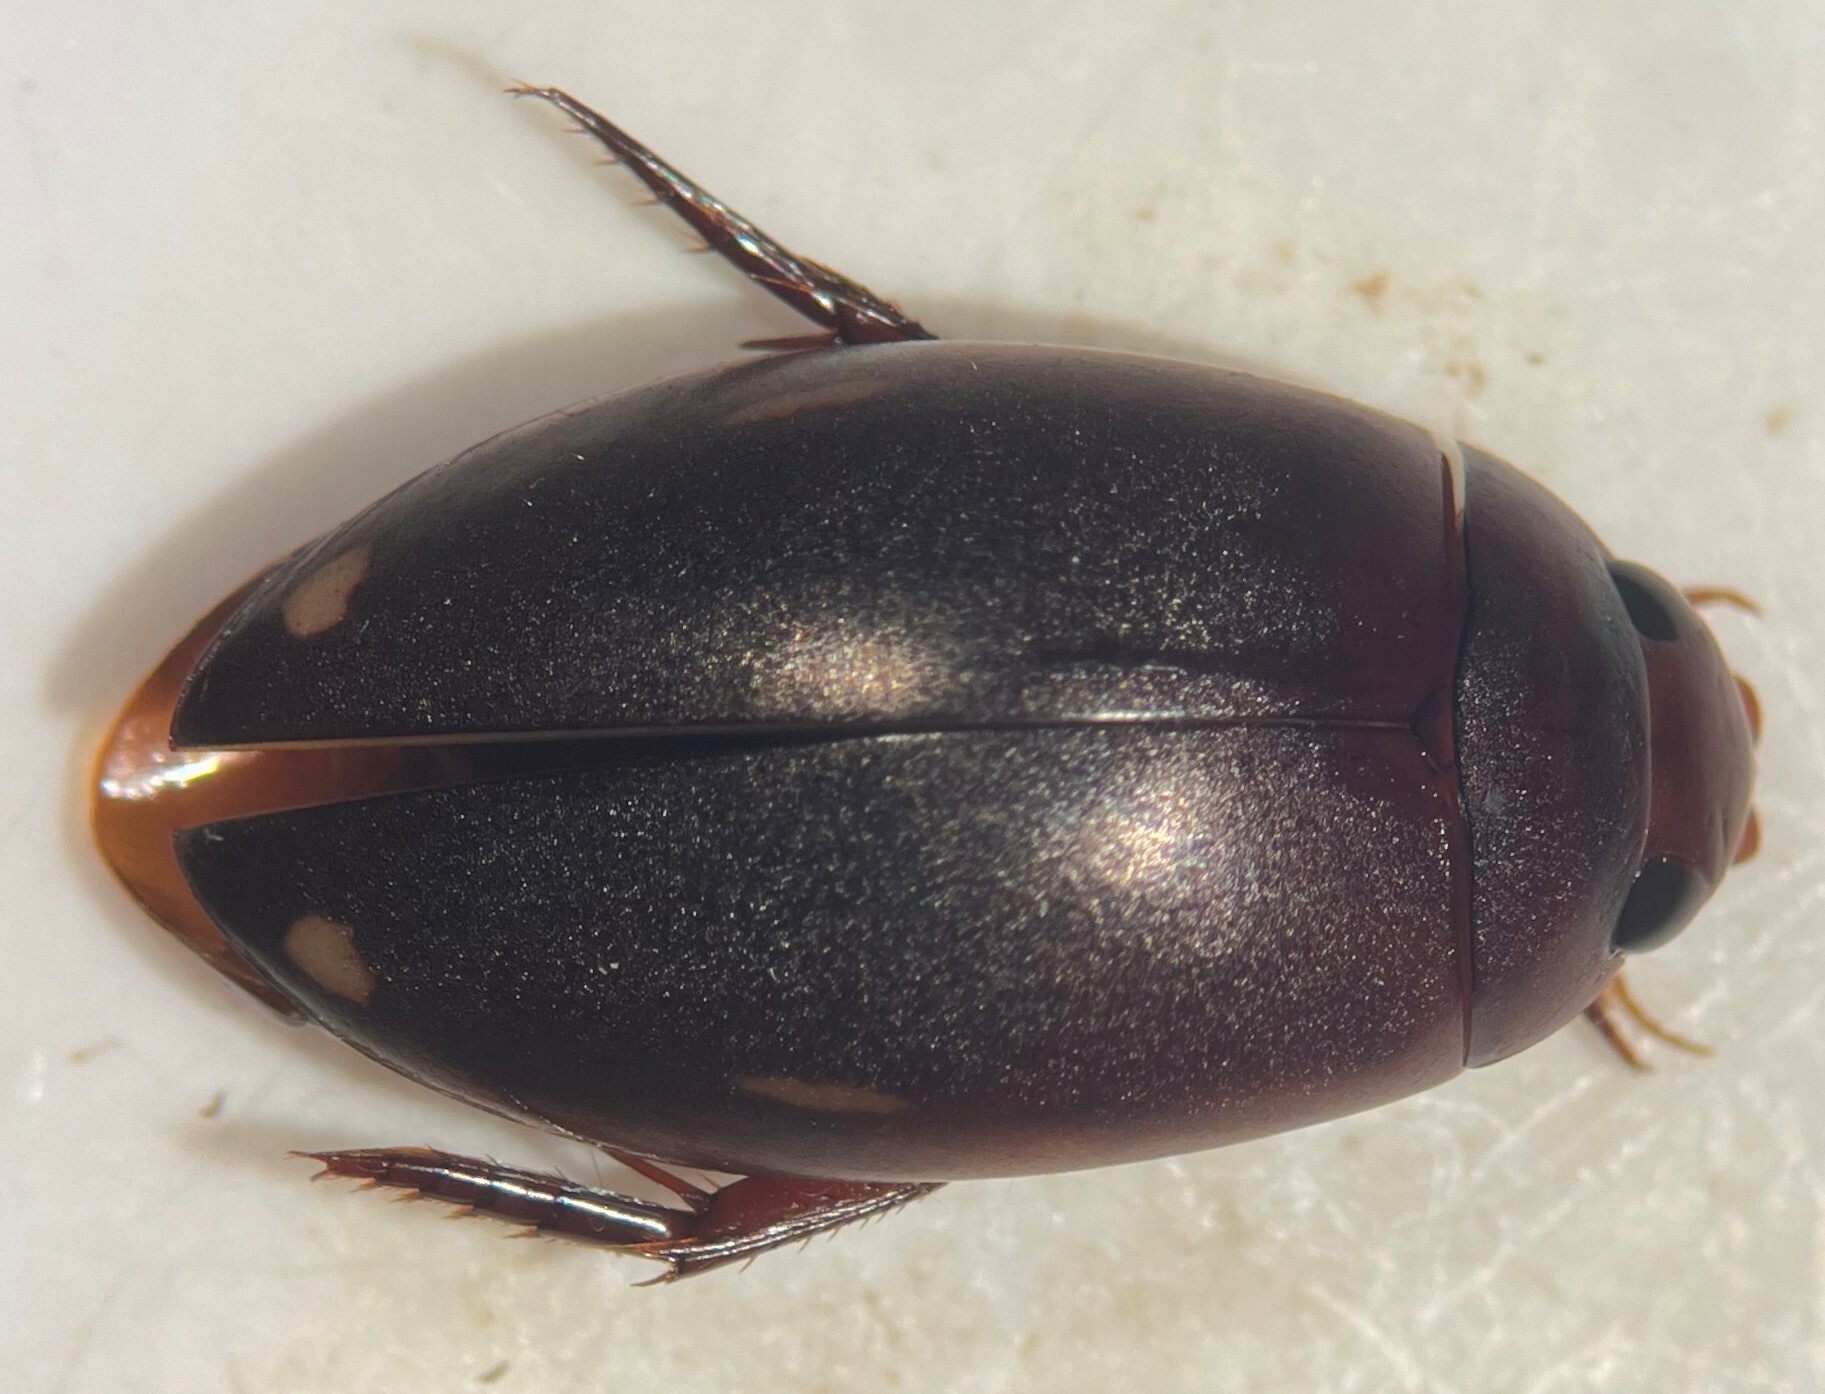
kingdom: Animalia
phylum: Arthropoda
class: Insecta
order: Coleoptera
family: Dytiscidae
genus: Ilybius
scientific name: Ilybius oblitus
